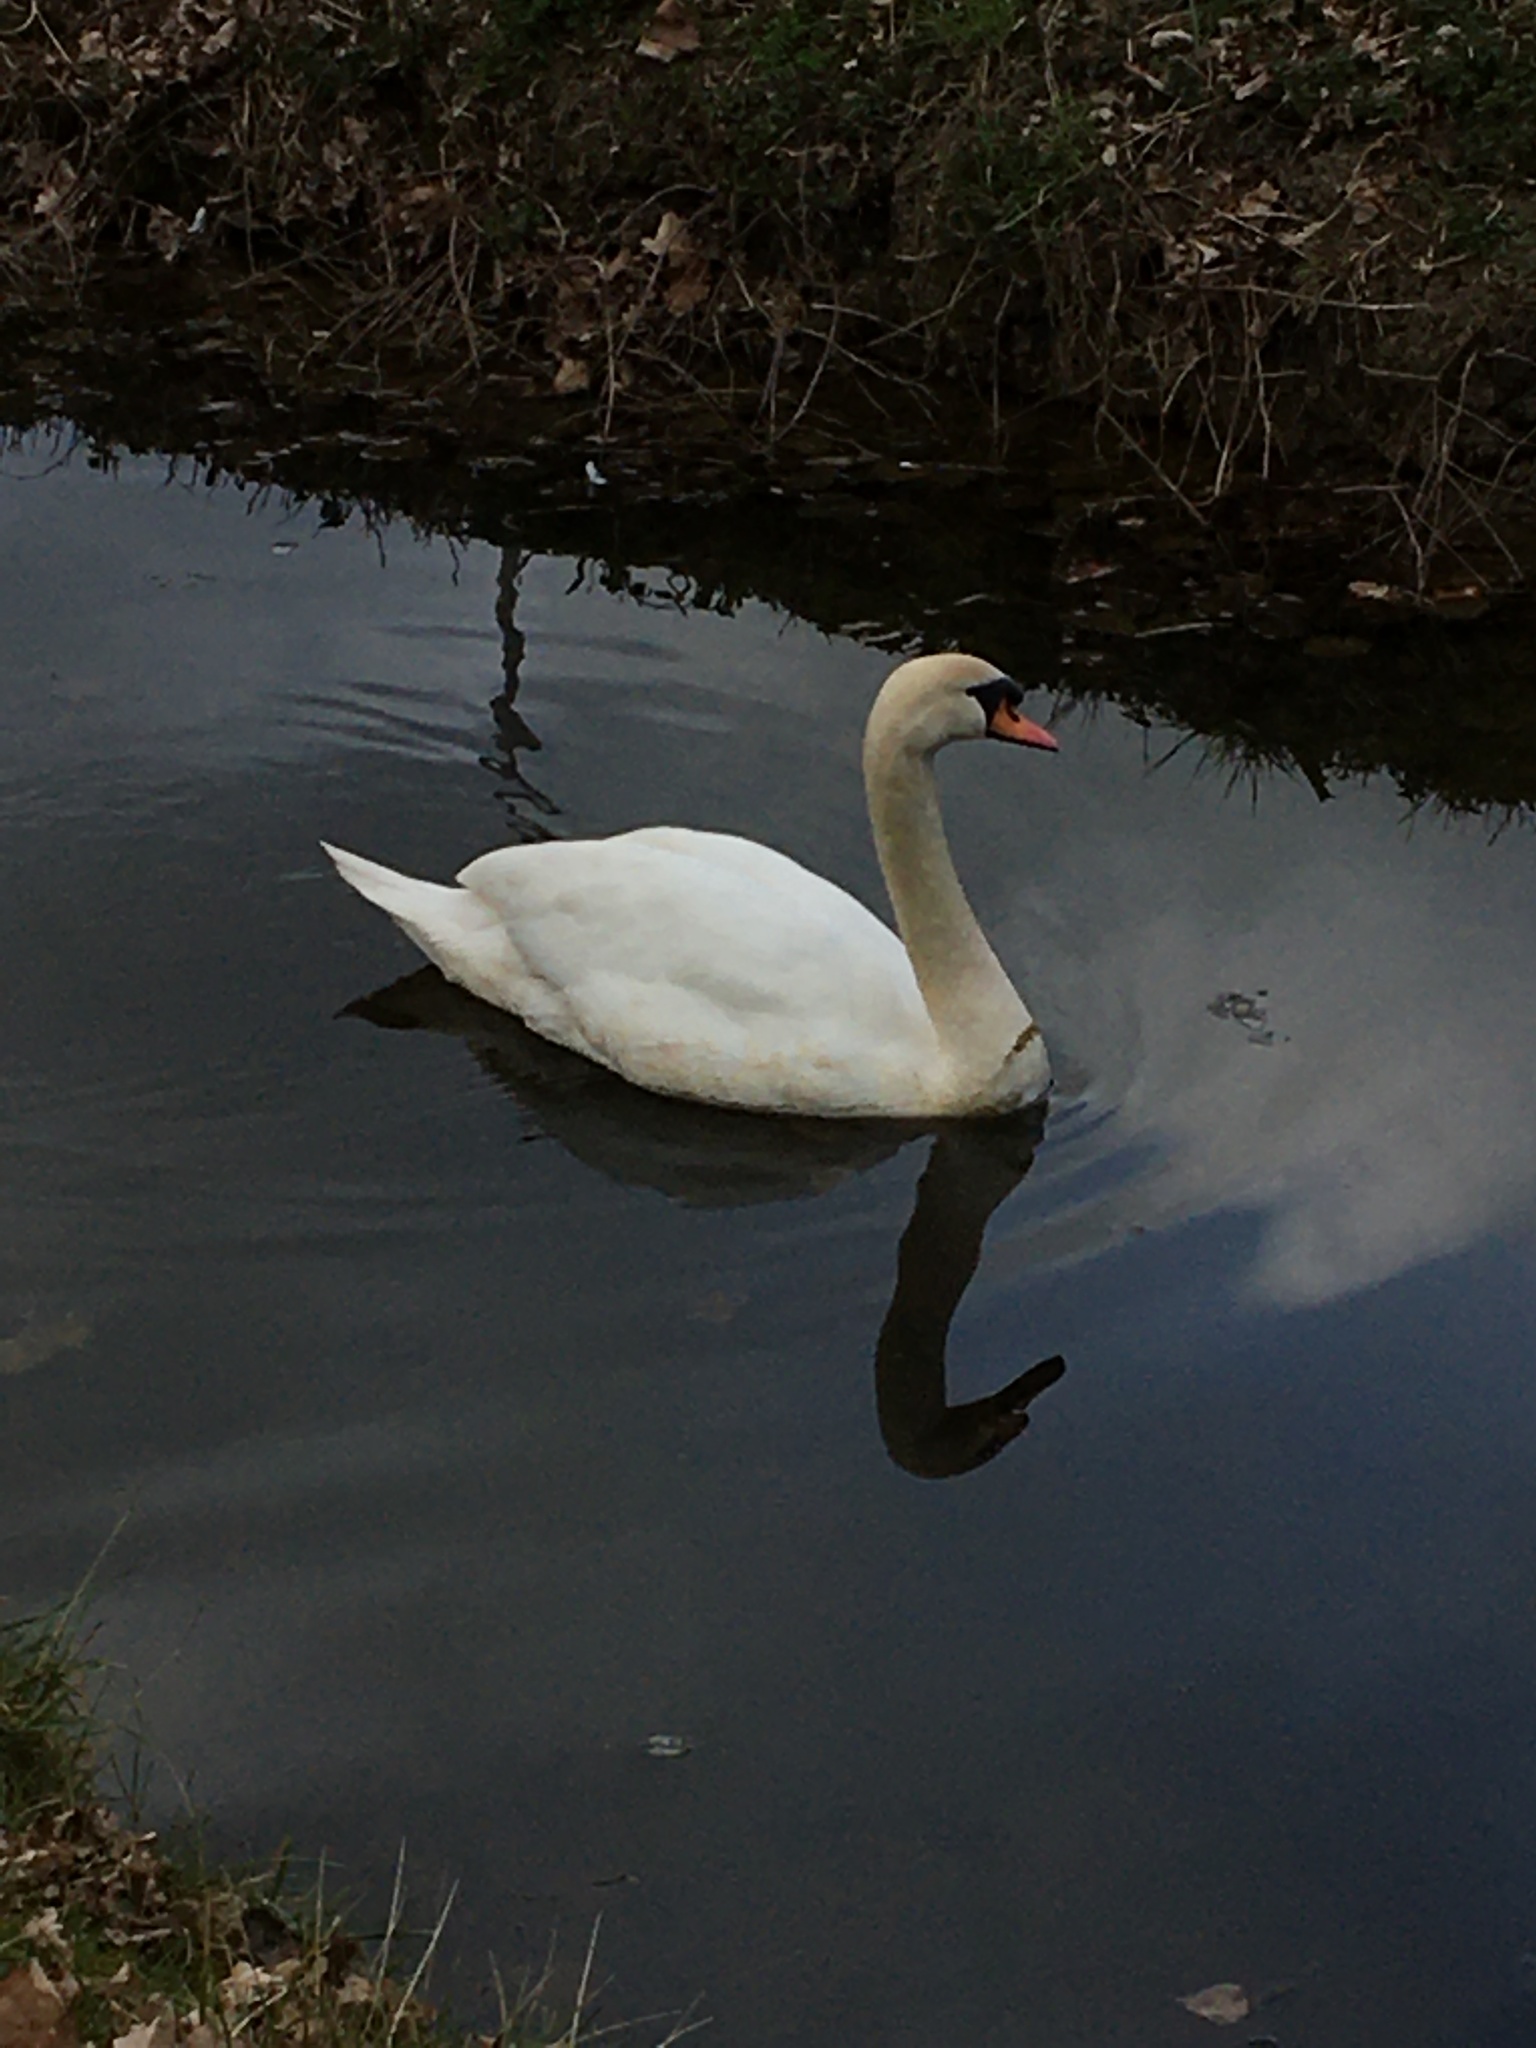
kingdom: Animalia
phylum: Chordata
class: Aves
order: Anseriformes
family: Anatidae
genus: Cygnus
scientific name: Cygnus olor
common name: Mute swan
